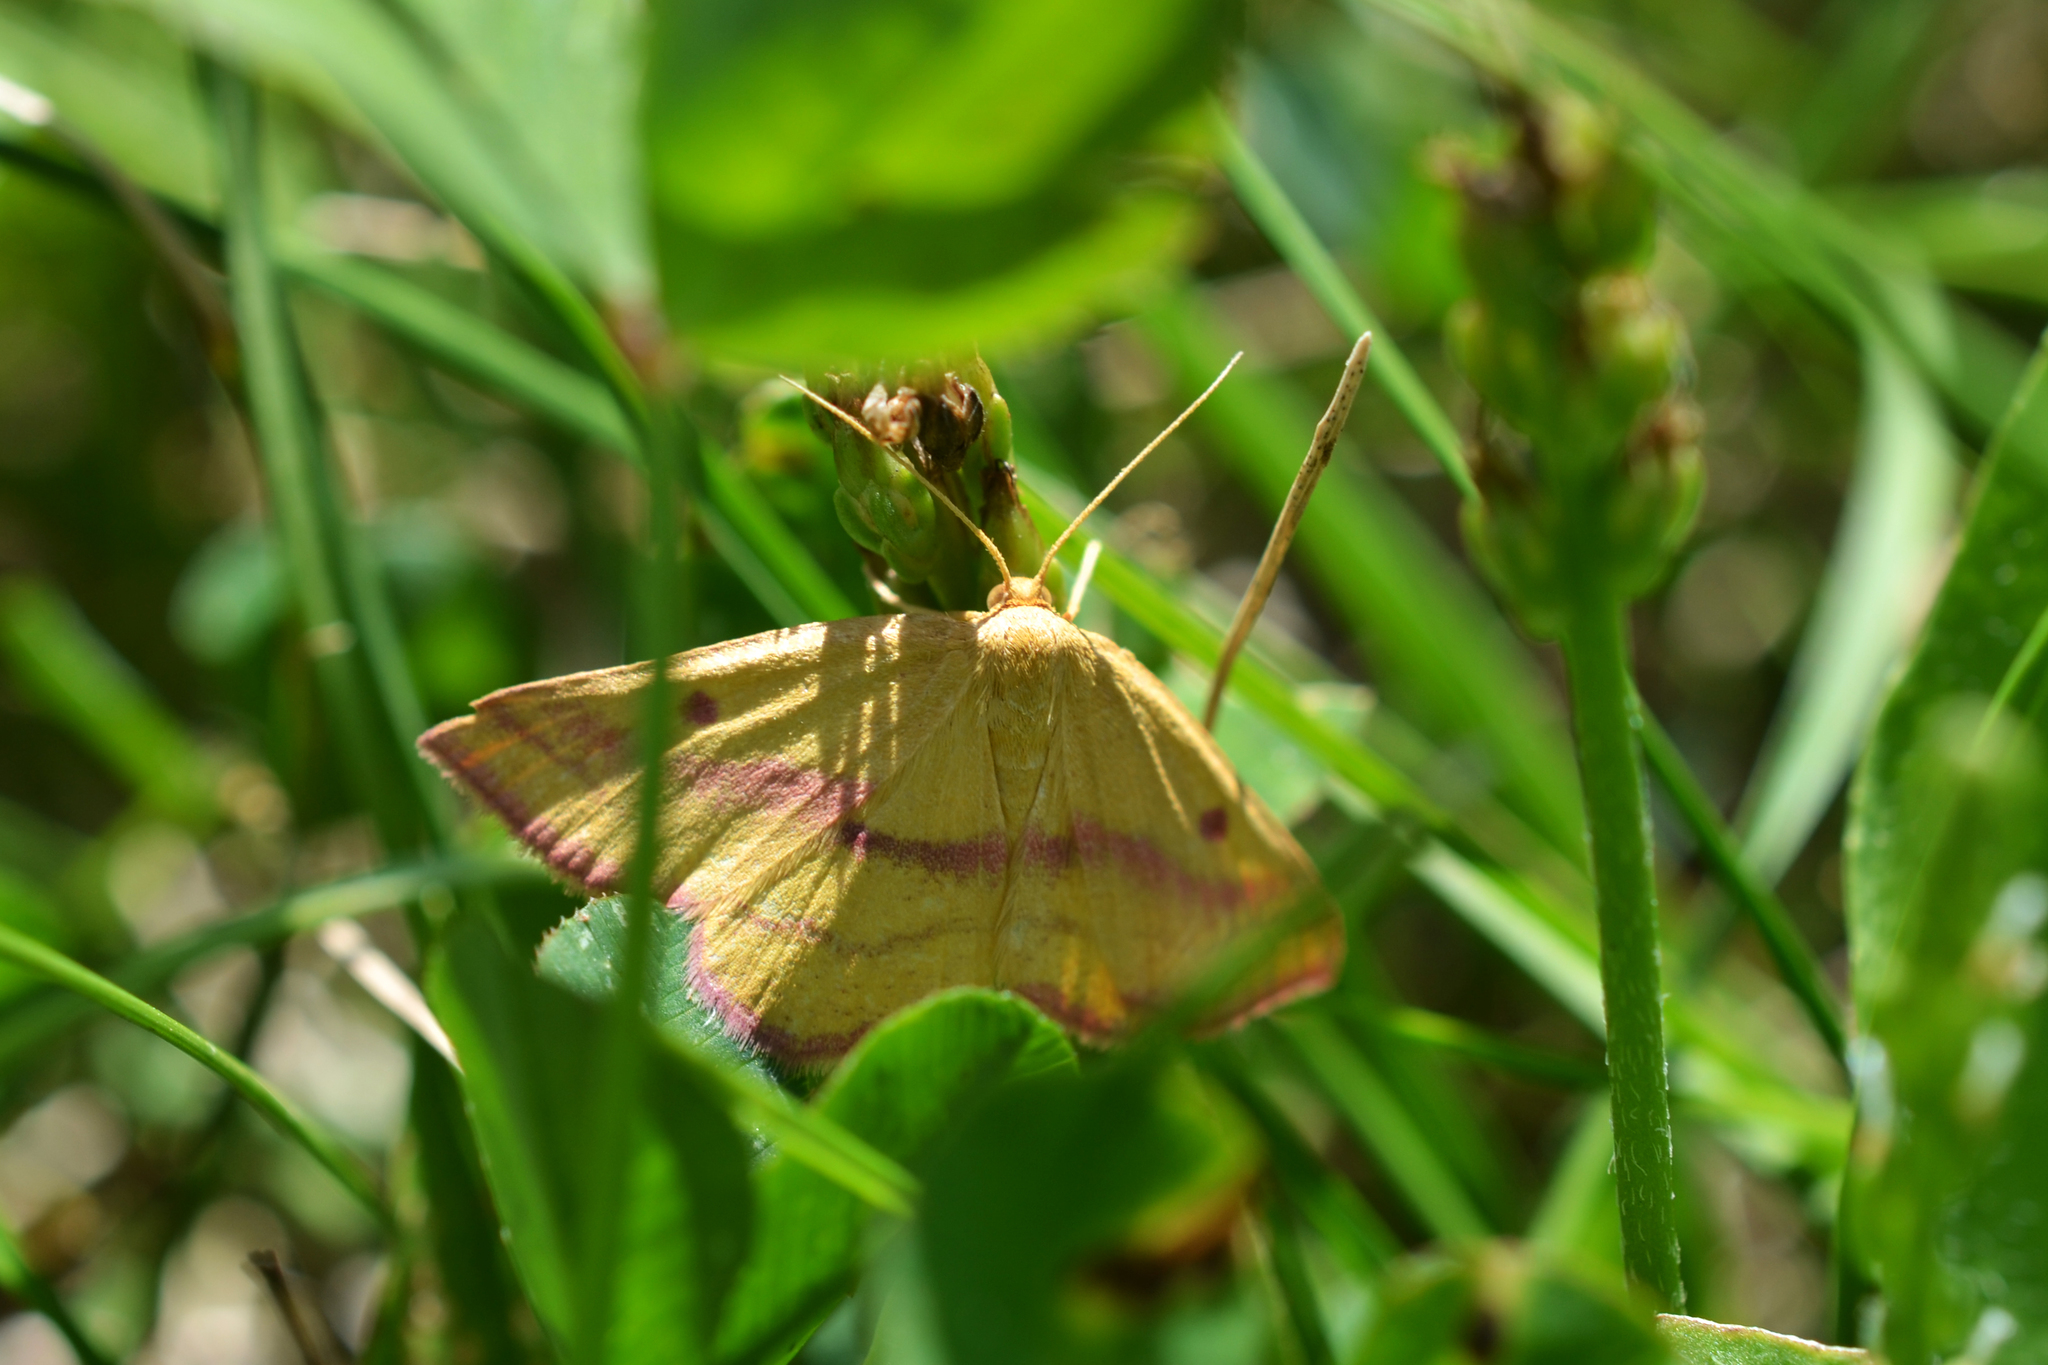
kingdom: Animalia
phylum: Arthropoda
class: Insecta
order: Lepidoptera
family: Geometridae
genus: Haematopis
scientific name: Haematopis grataria
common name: Chickweed geometer
